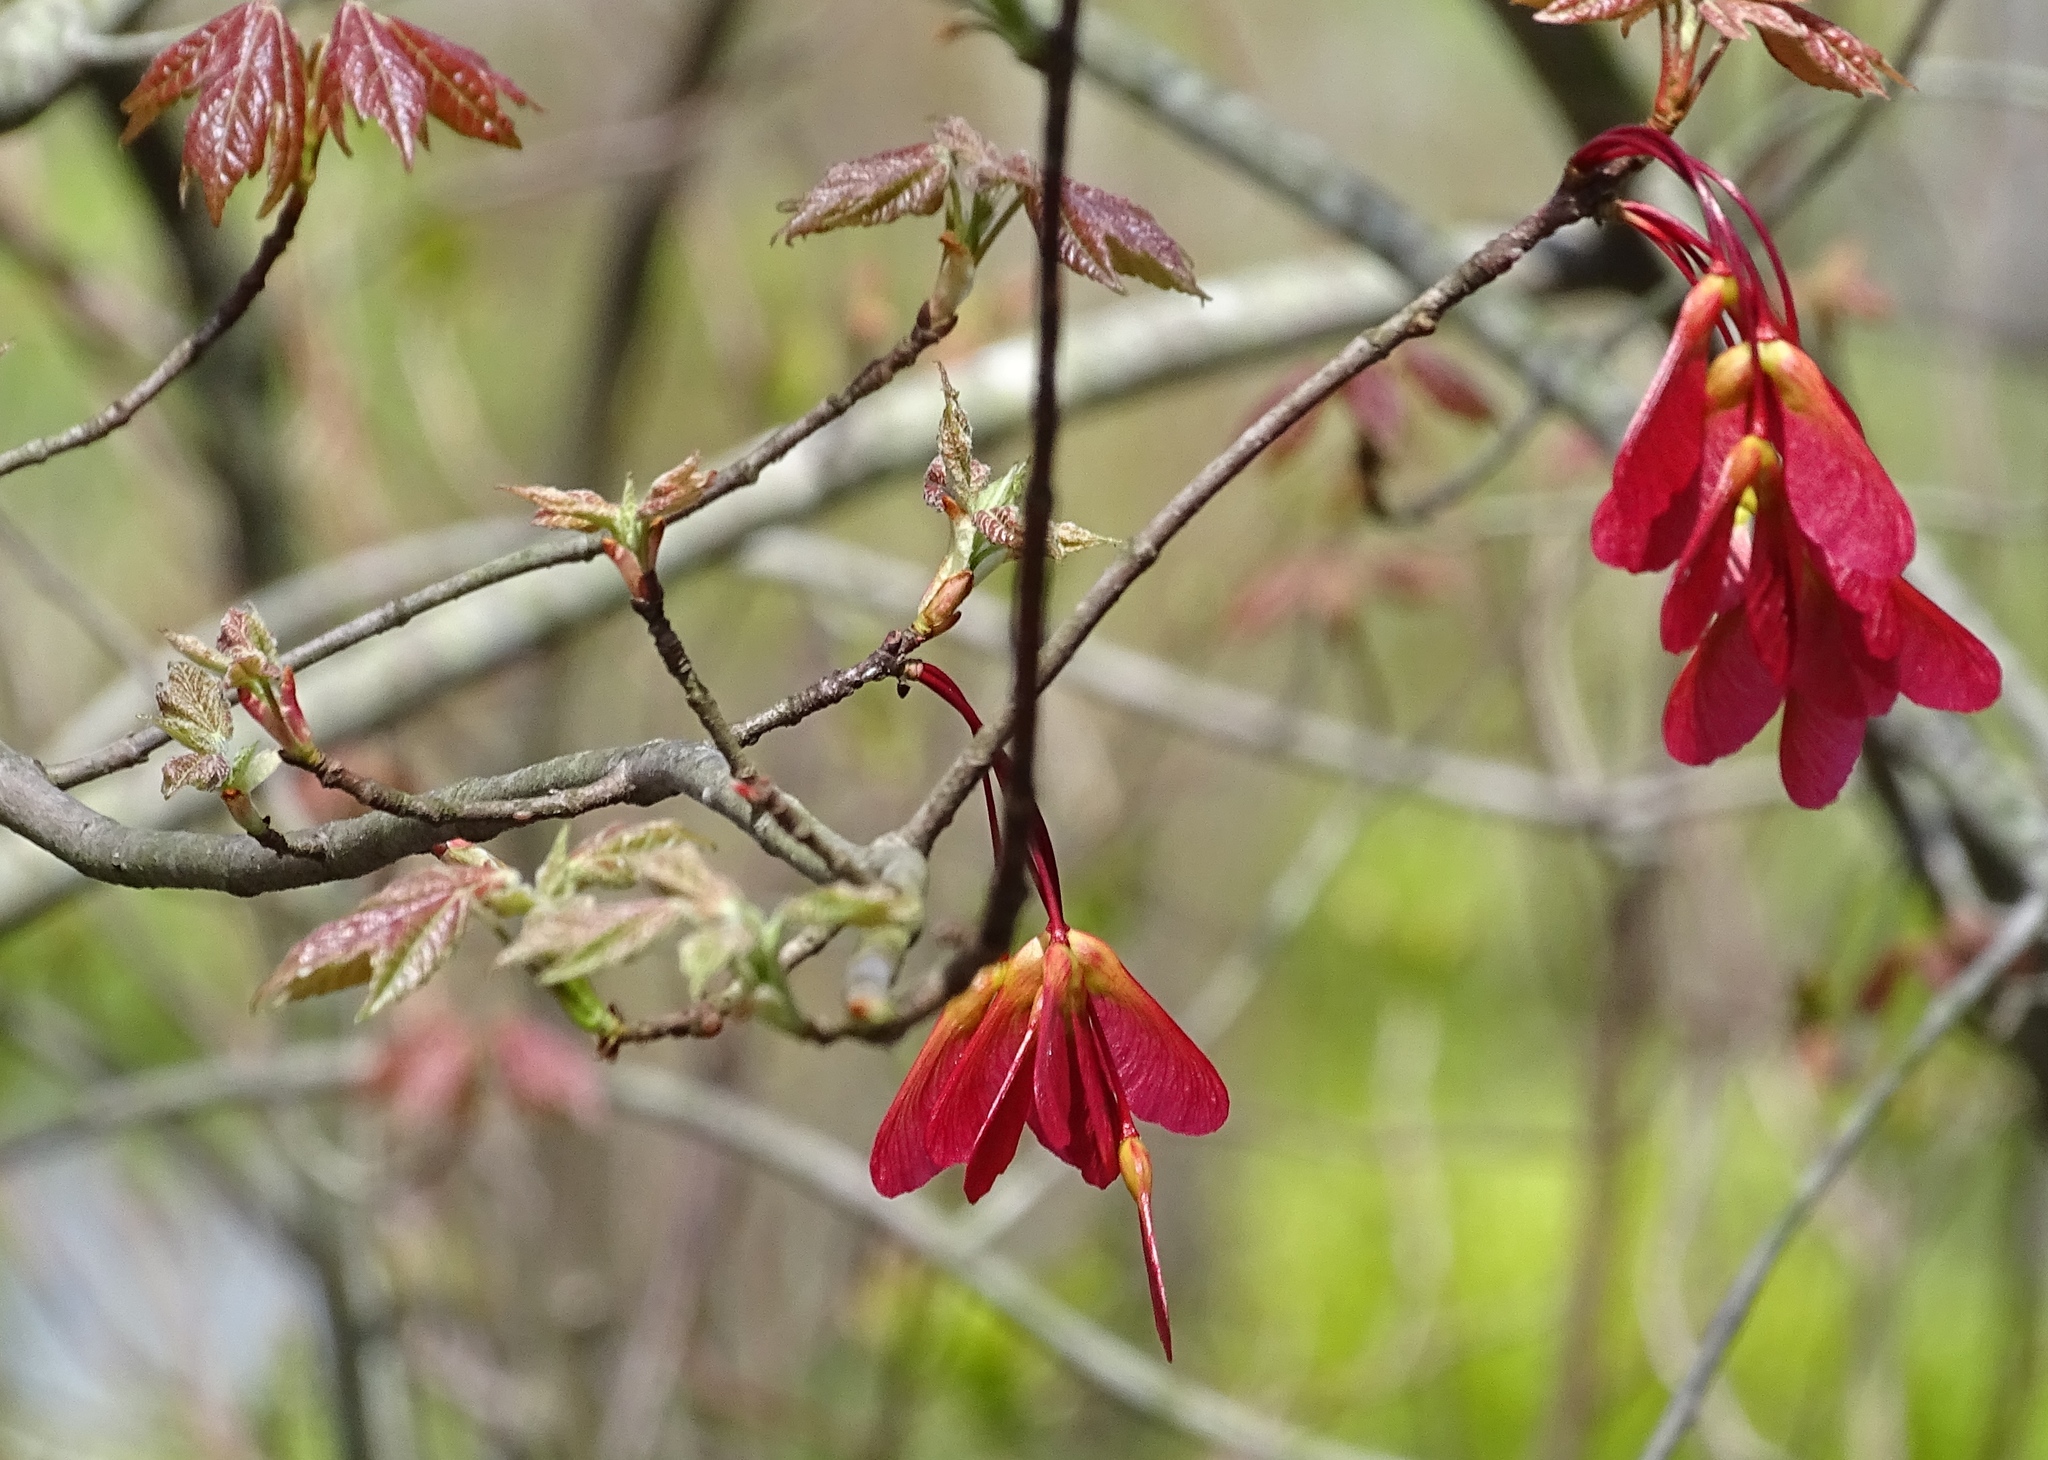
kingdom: Plantae
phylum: Tracheophyta
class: Magnoliopsida
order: Sapindales
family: Sapindaceae
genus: Acer
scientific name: Acer rubrum
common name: Red maple
